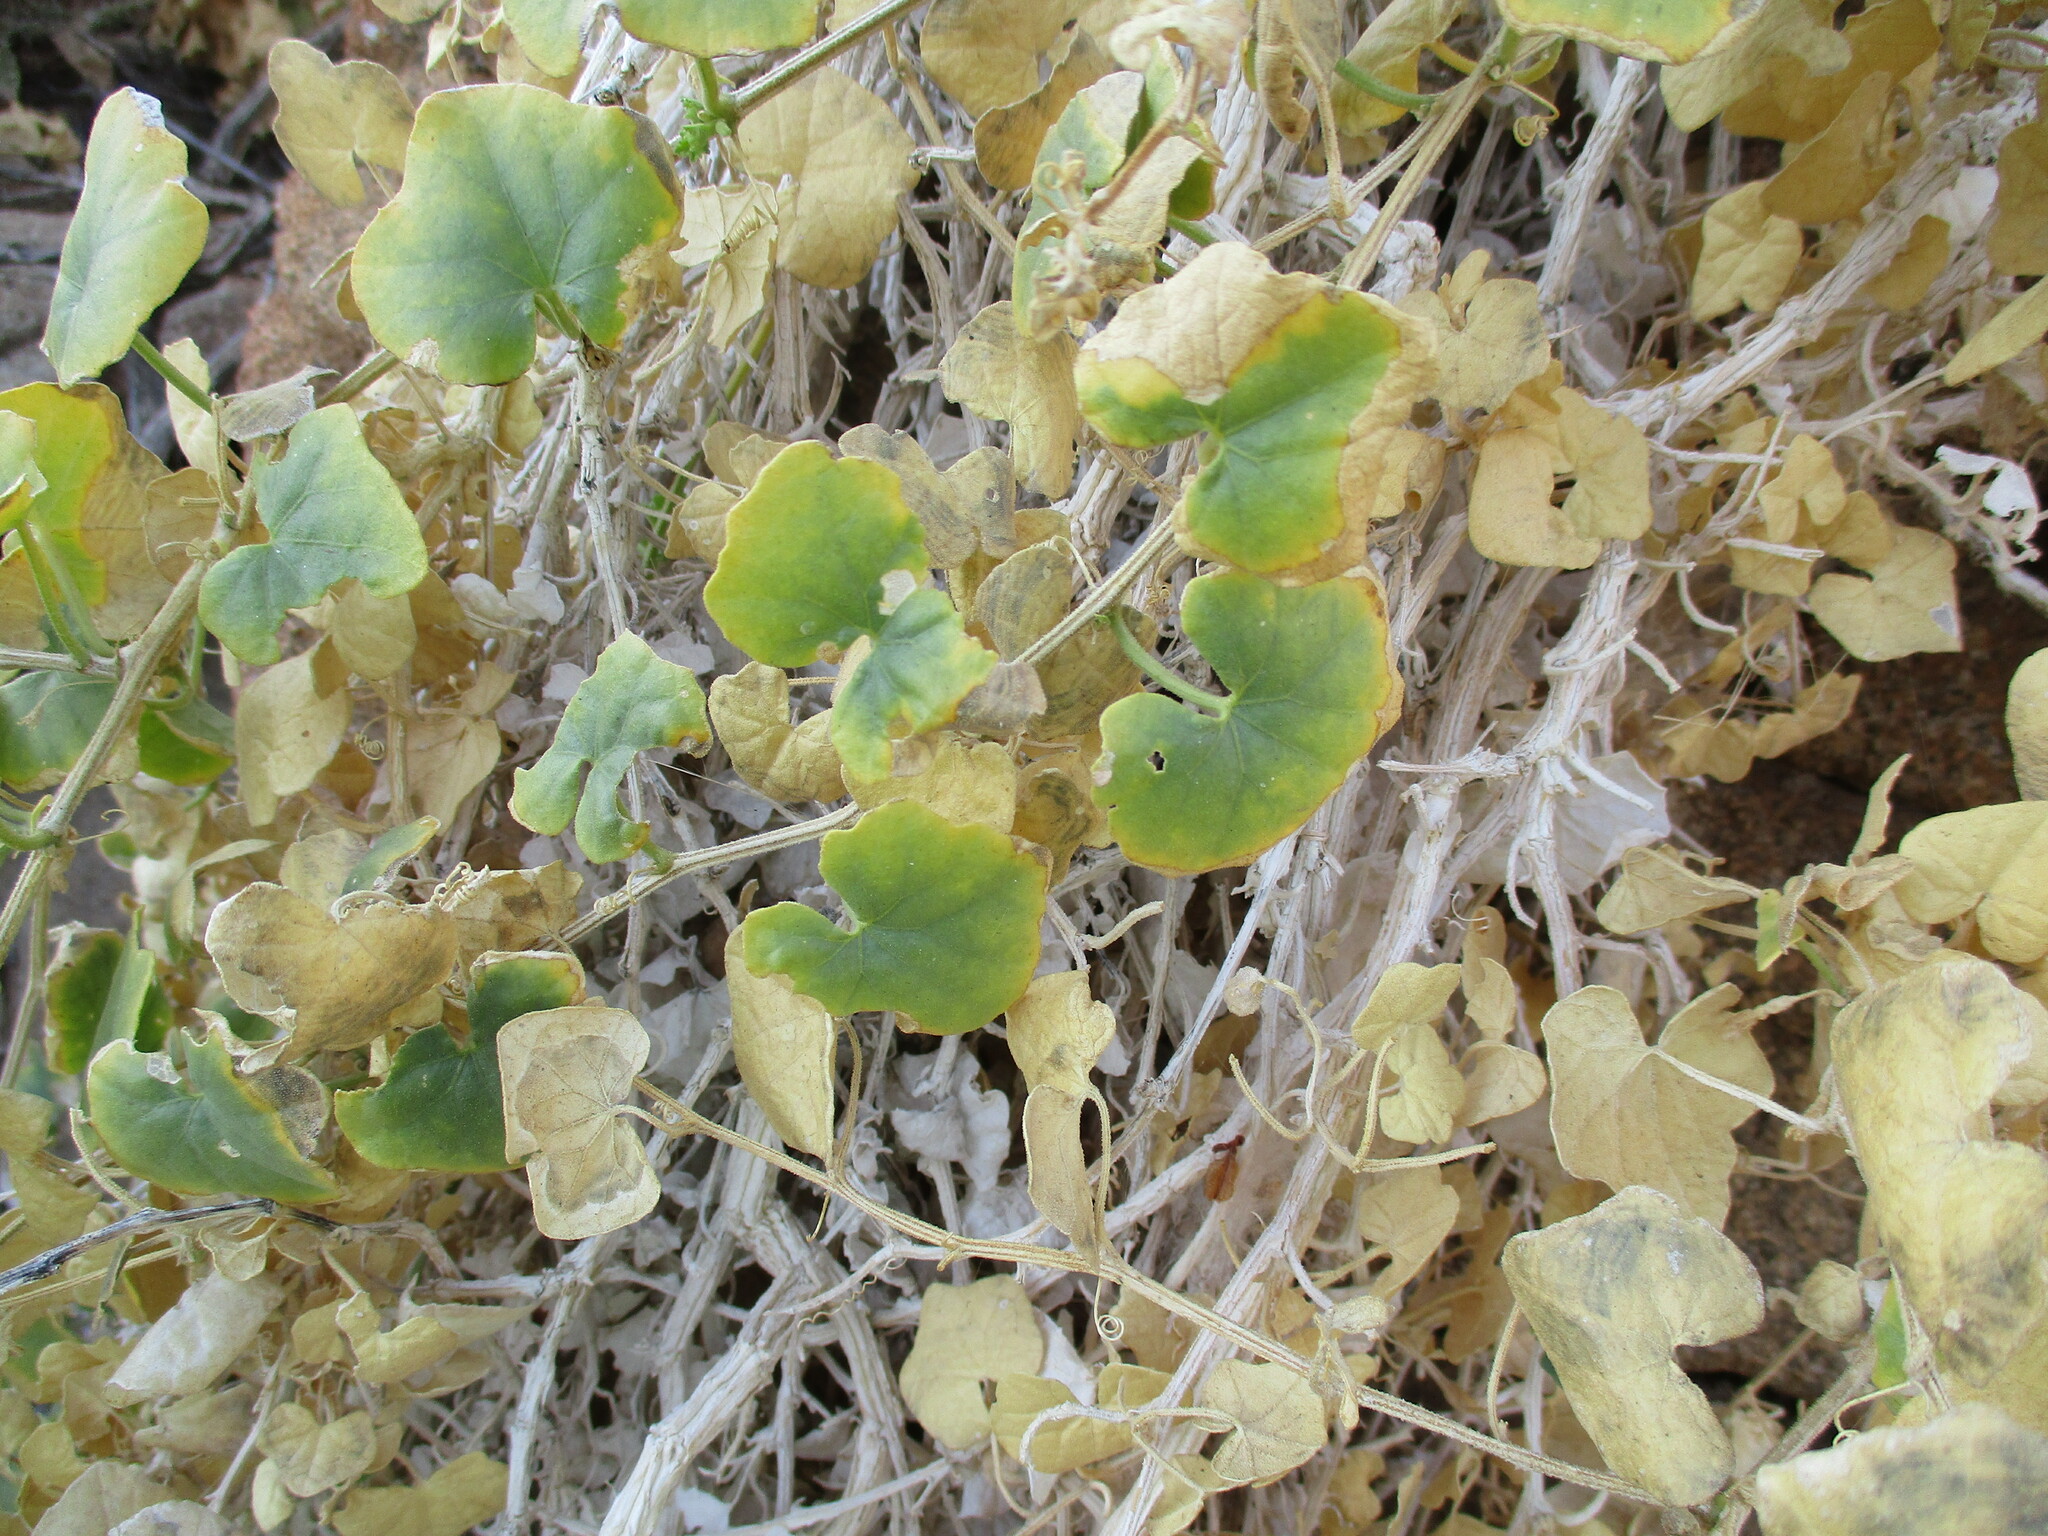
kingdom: Plantae
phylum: Tracheophyta
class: Magnoliopsida
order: Cucurbitales
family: Cucurbitaceae
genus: Cucumis
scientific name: Cucumis asper
